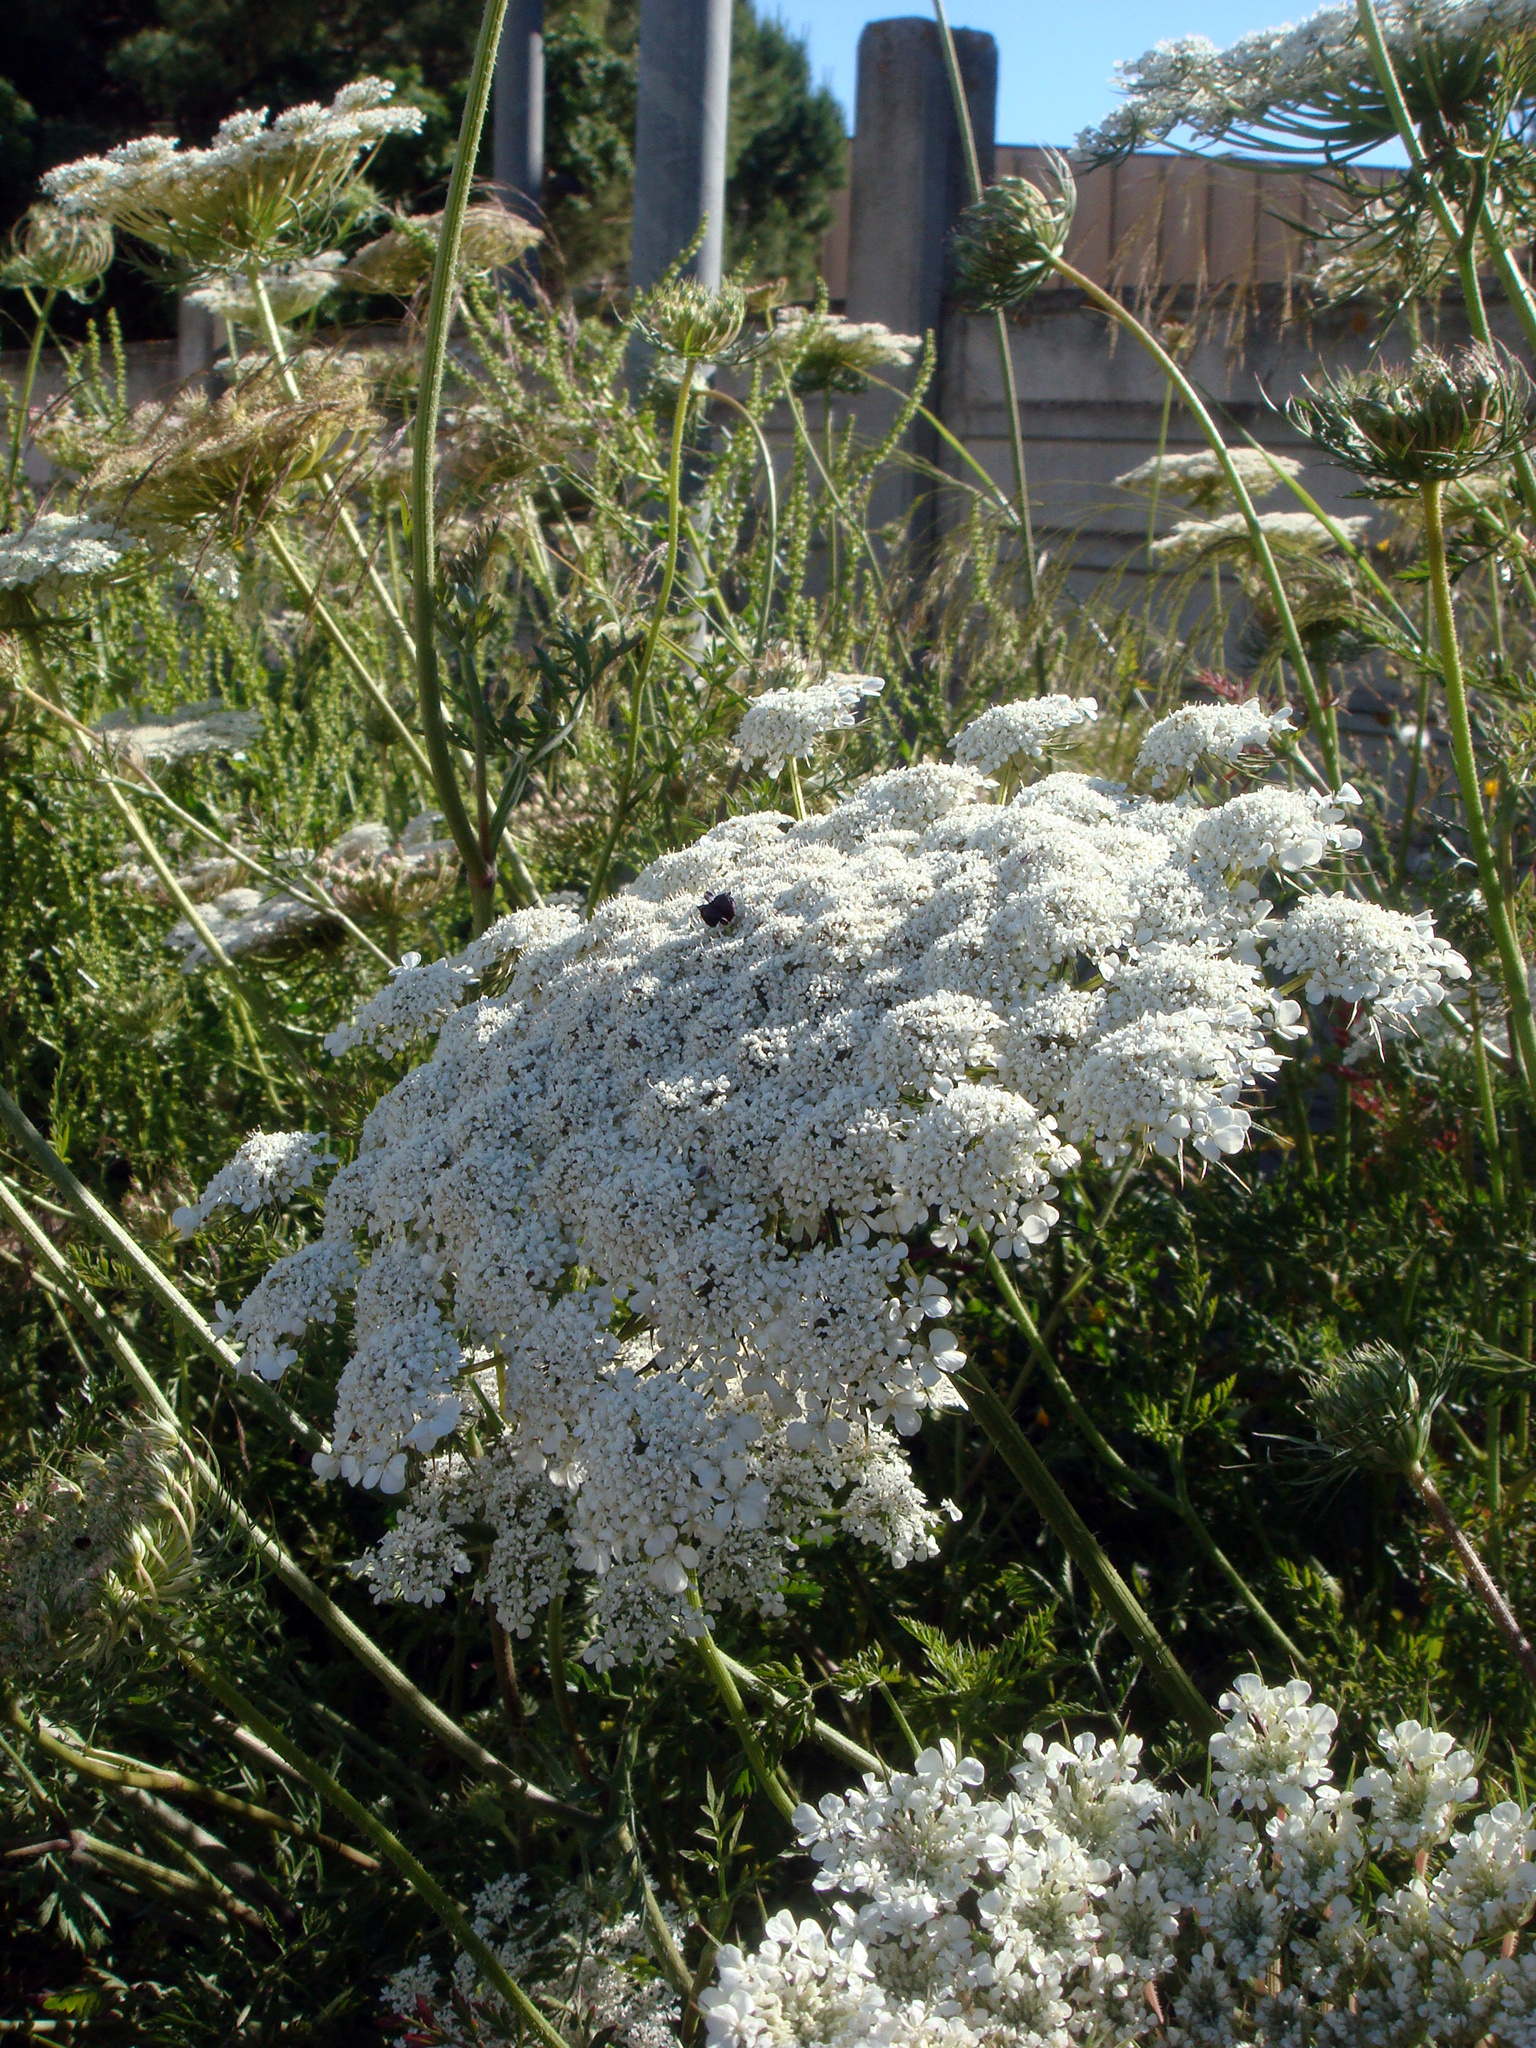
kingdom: Plantae
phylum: Tracheophyta
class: Magnoliopsida
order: Apiales
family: Apiaceae
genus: Daucus
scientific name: Daucus carota
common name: Wild carrot
